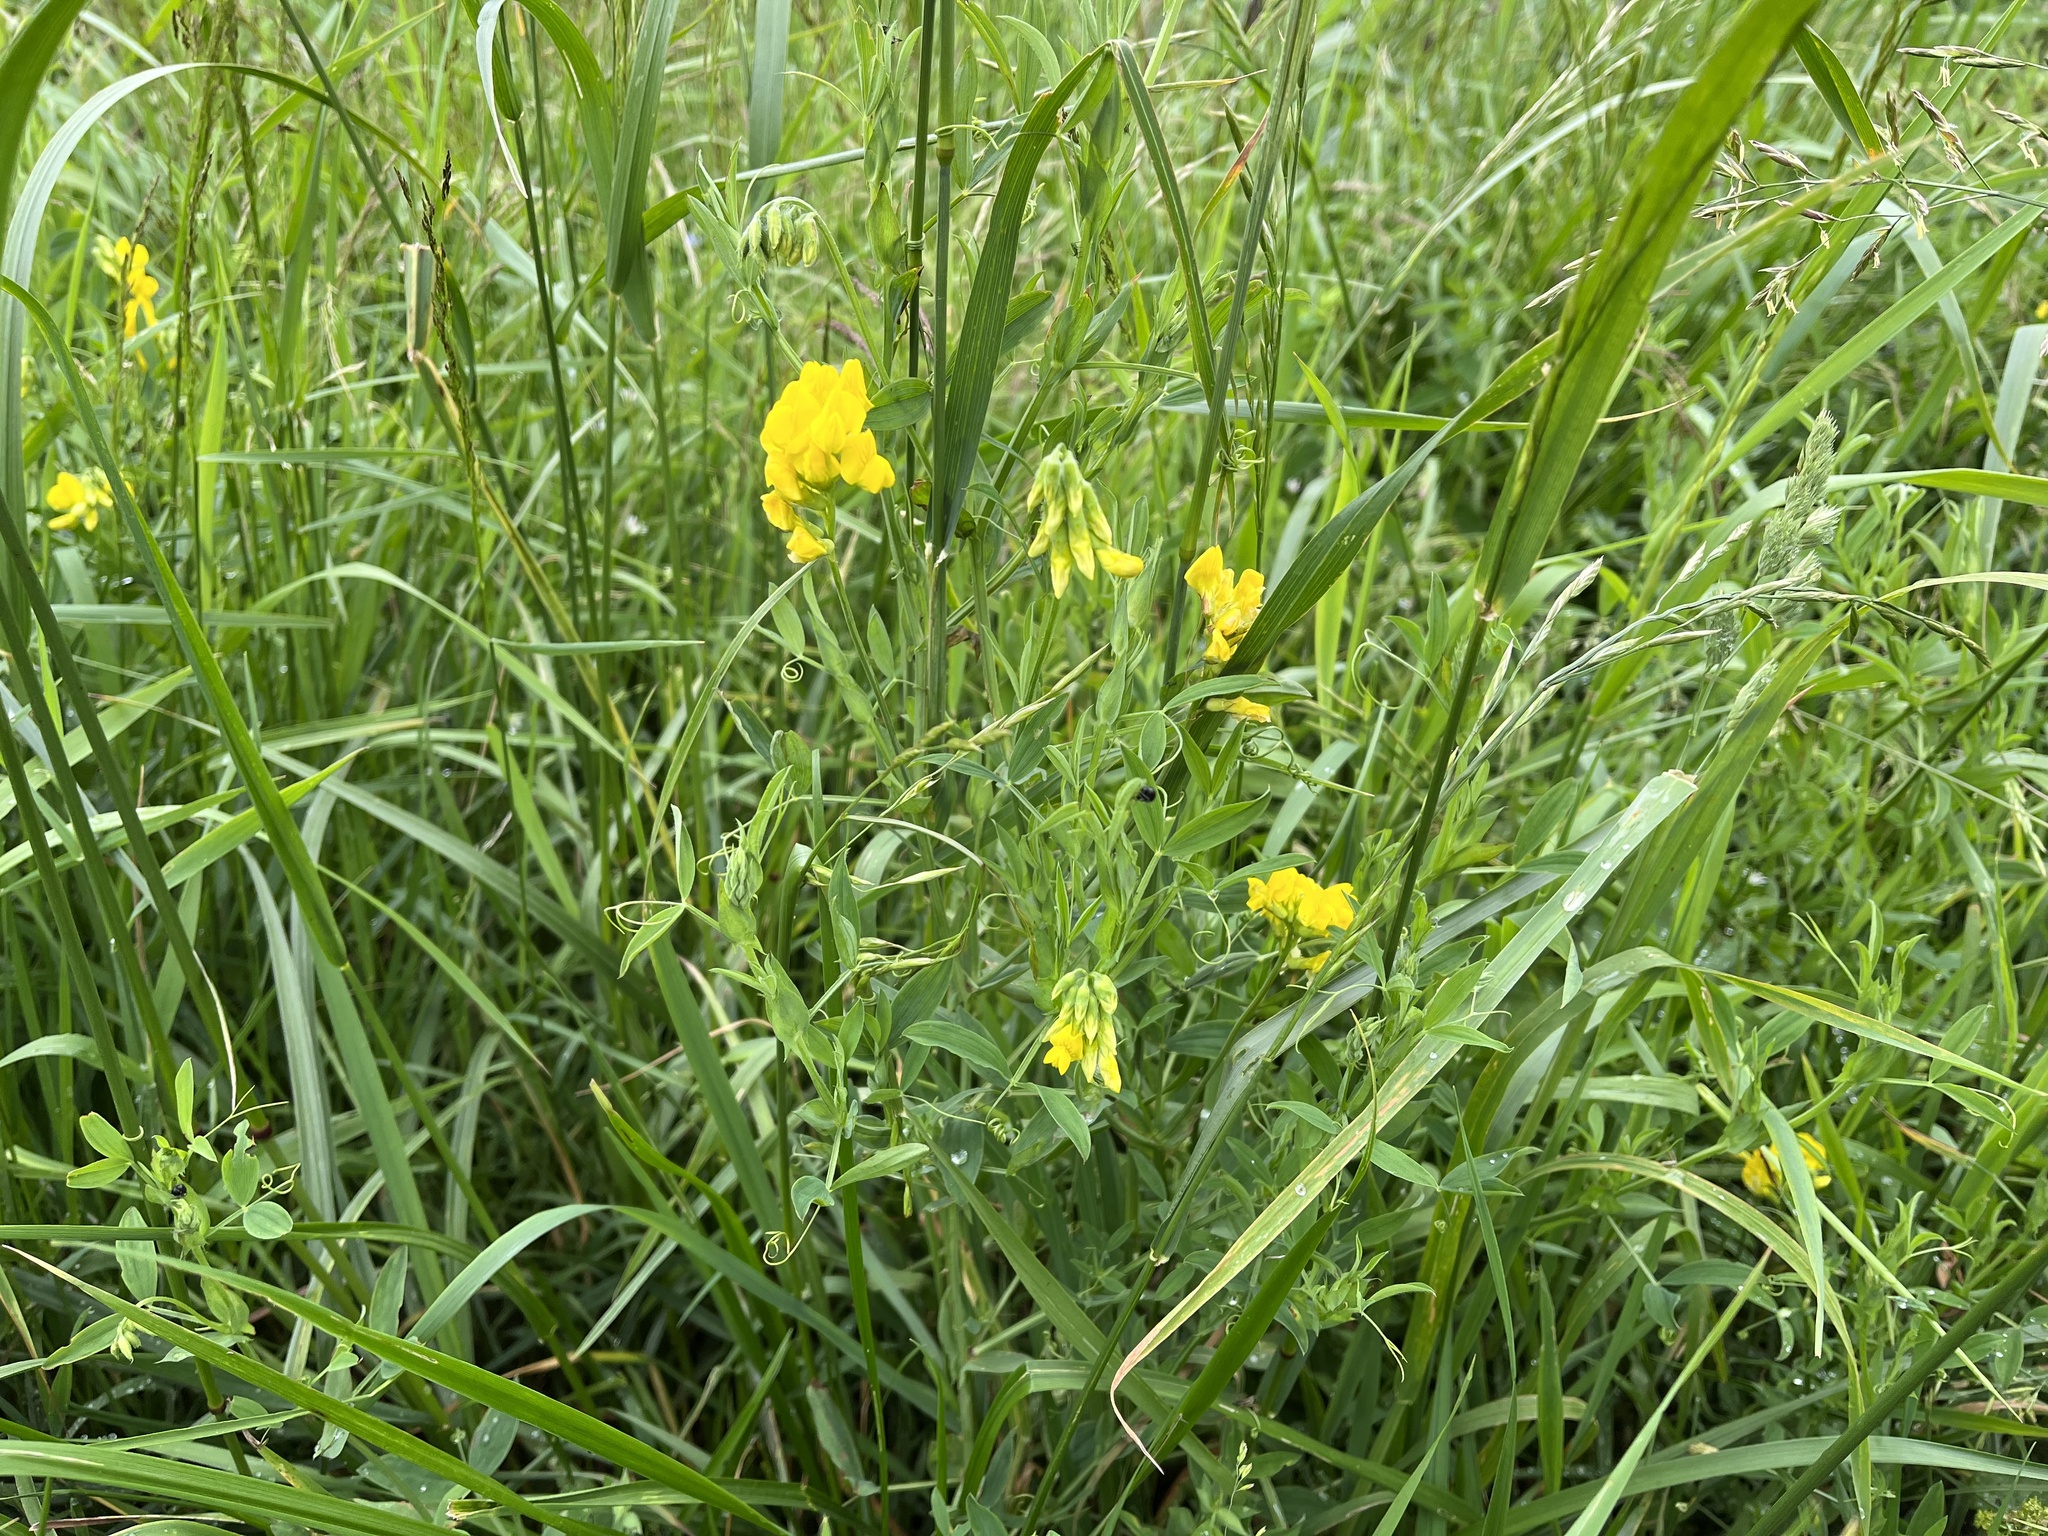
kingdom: Plantae
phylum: Tracheophyta
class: Magnoliopsida
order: Fabales
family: Fabaceae
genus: Lathyrus
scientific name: Lathyrus pratensis
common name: Meadow vetchling
